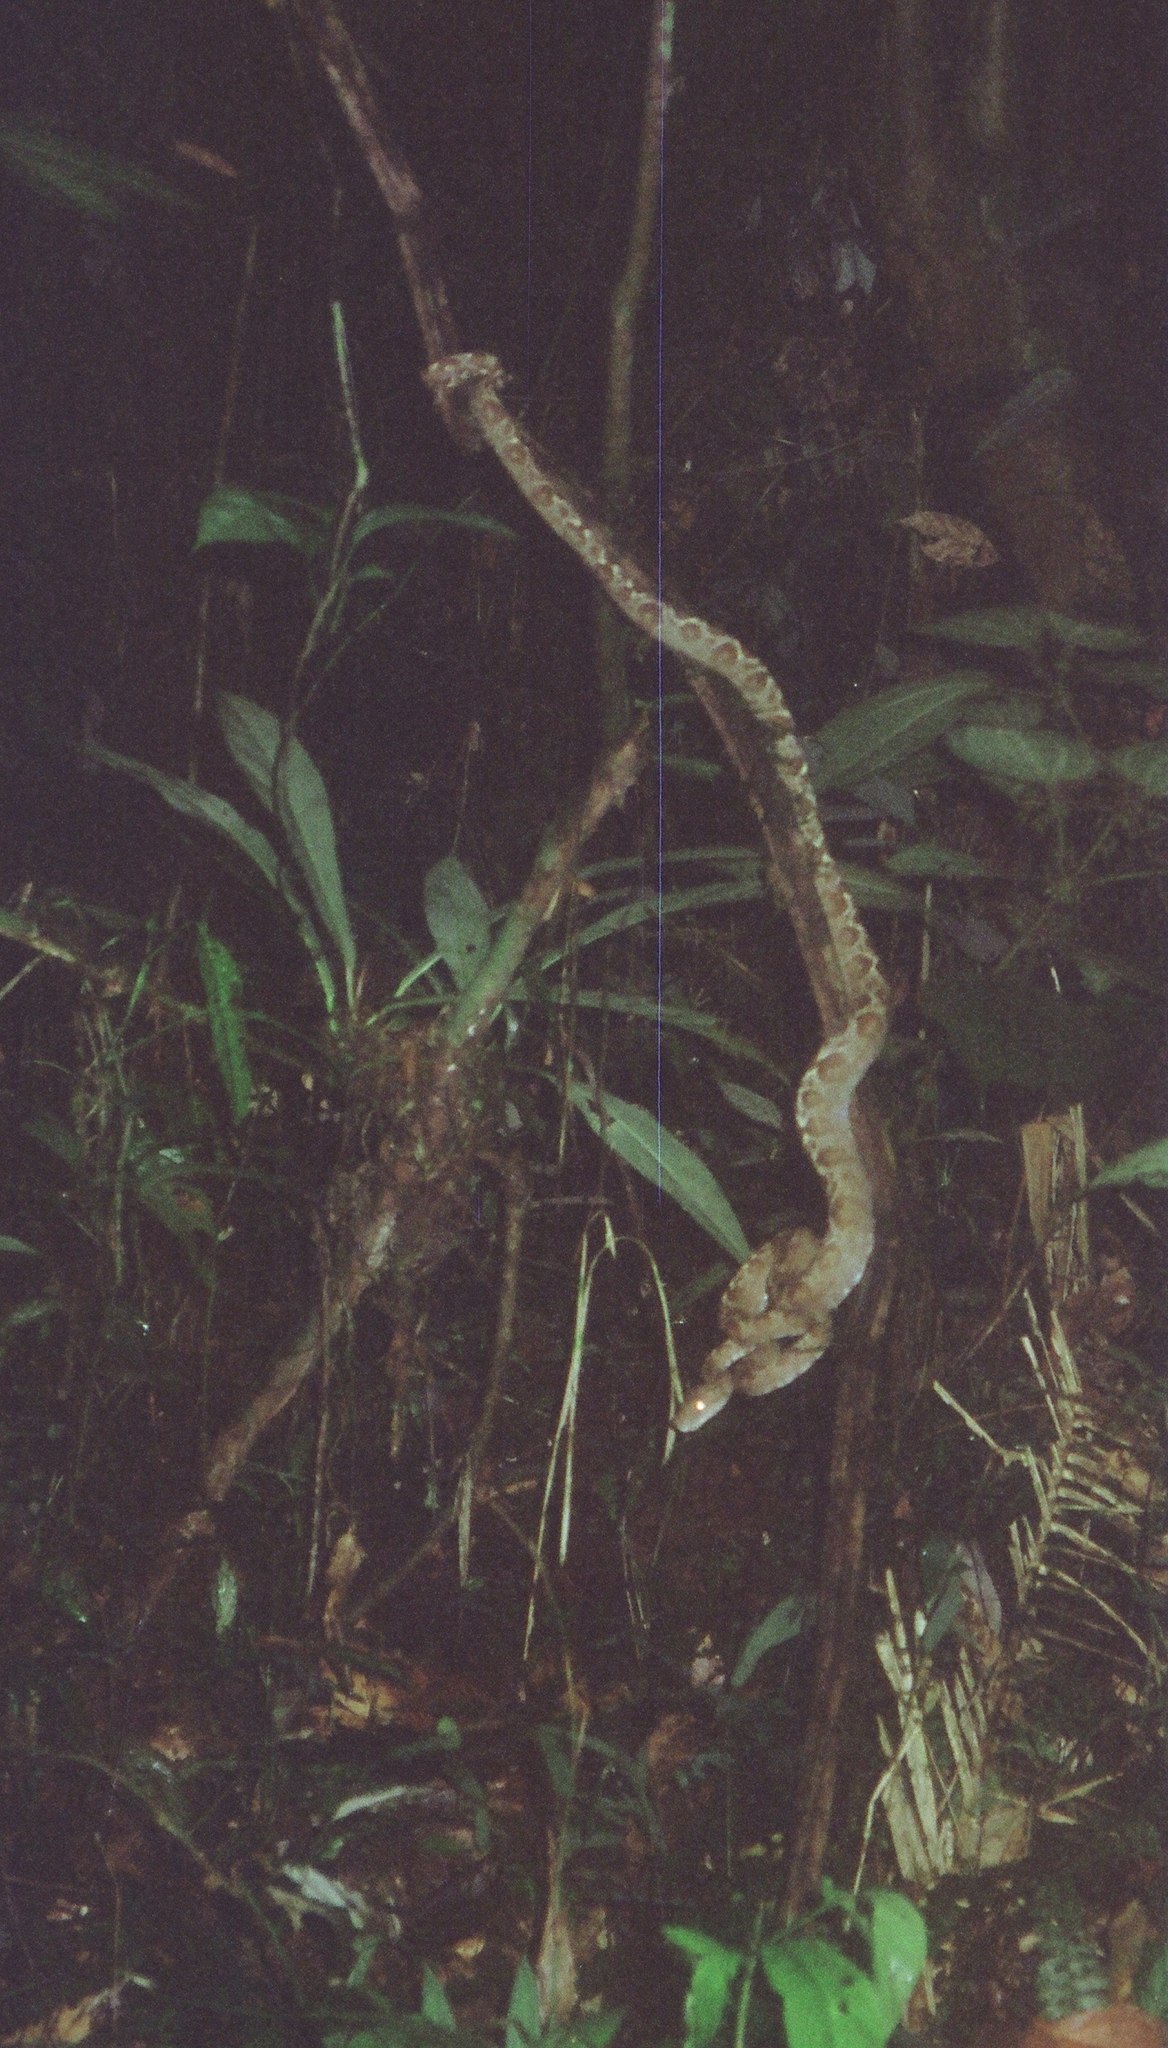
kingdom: Animalia
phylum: Chordata
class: Squamata
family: Boidae
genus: Corallus
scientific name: Corallus hortulana
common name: Garden tree boa
